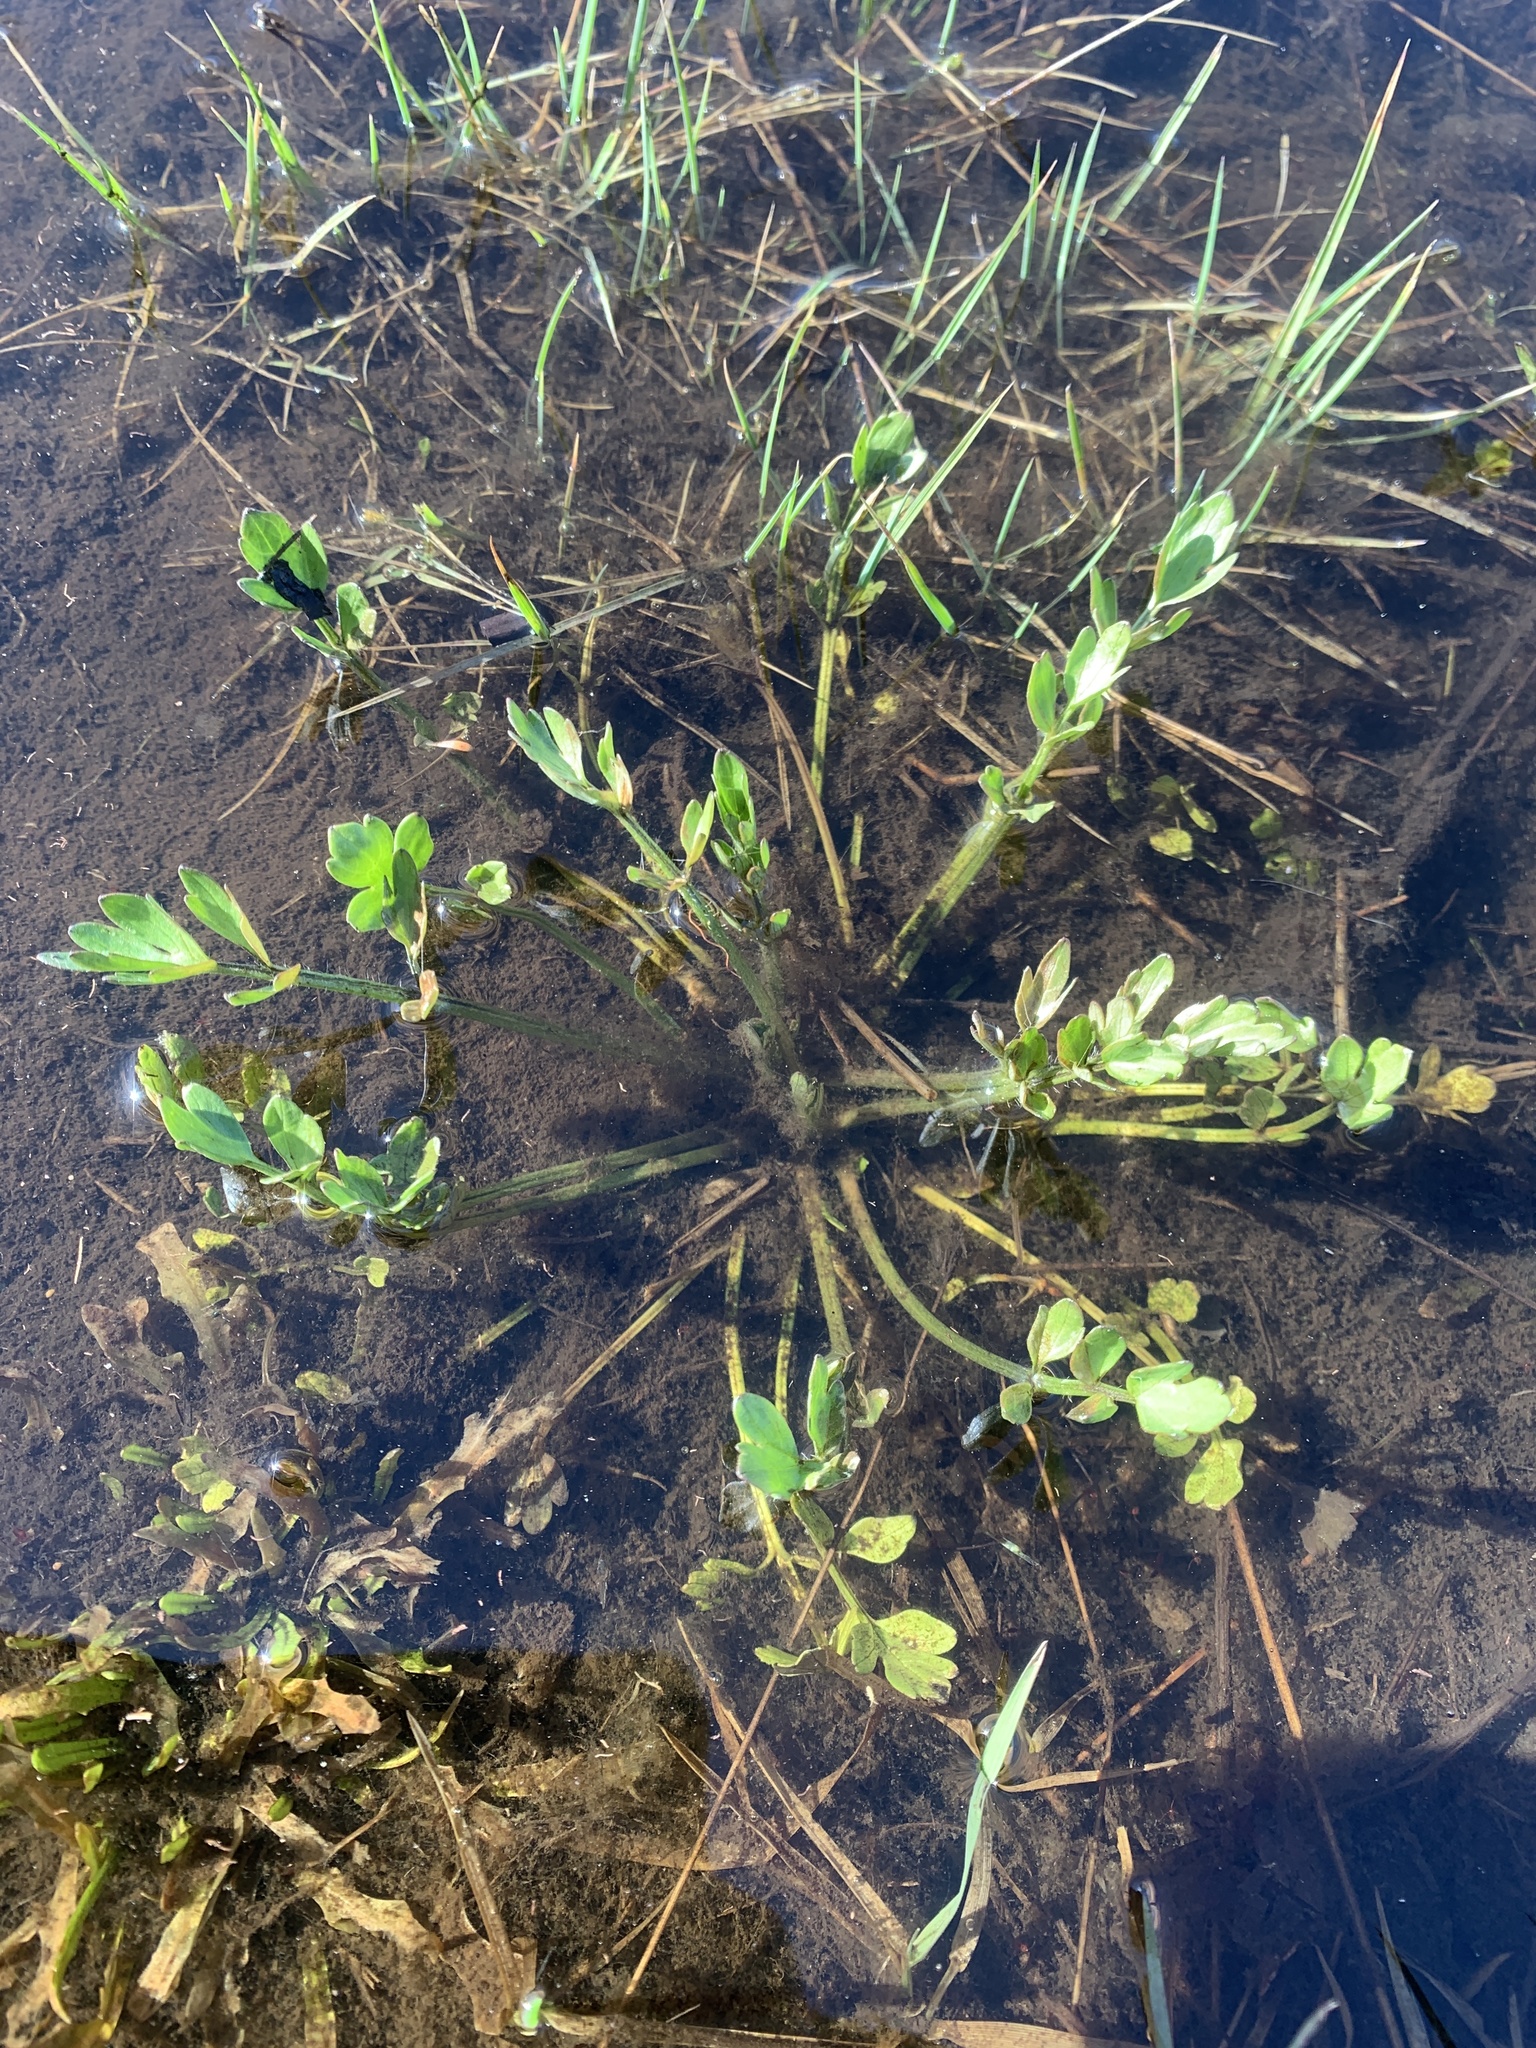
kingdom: Plantae
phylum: Tracheophyta
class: Magnoliopsida
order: Ranunculales
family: Ranunculaceae
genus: Ranunculus
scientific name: Ranunculus orthorhynchus
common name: Straight-beak buttercup
